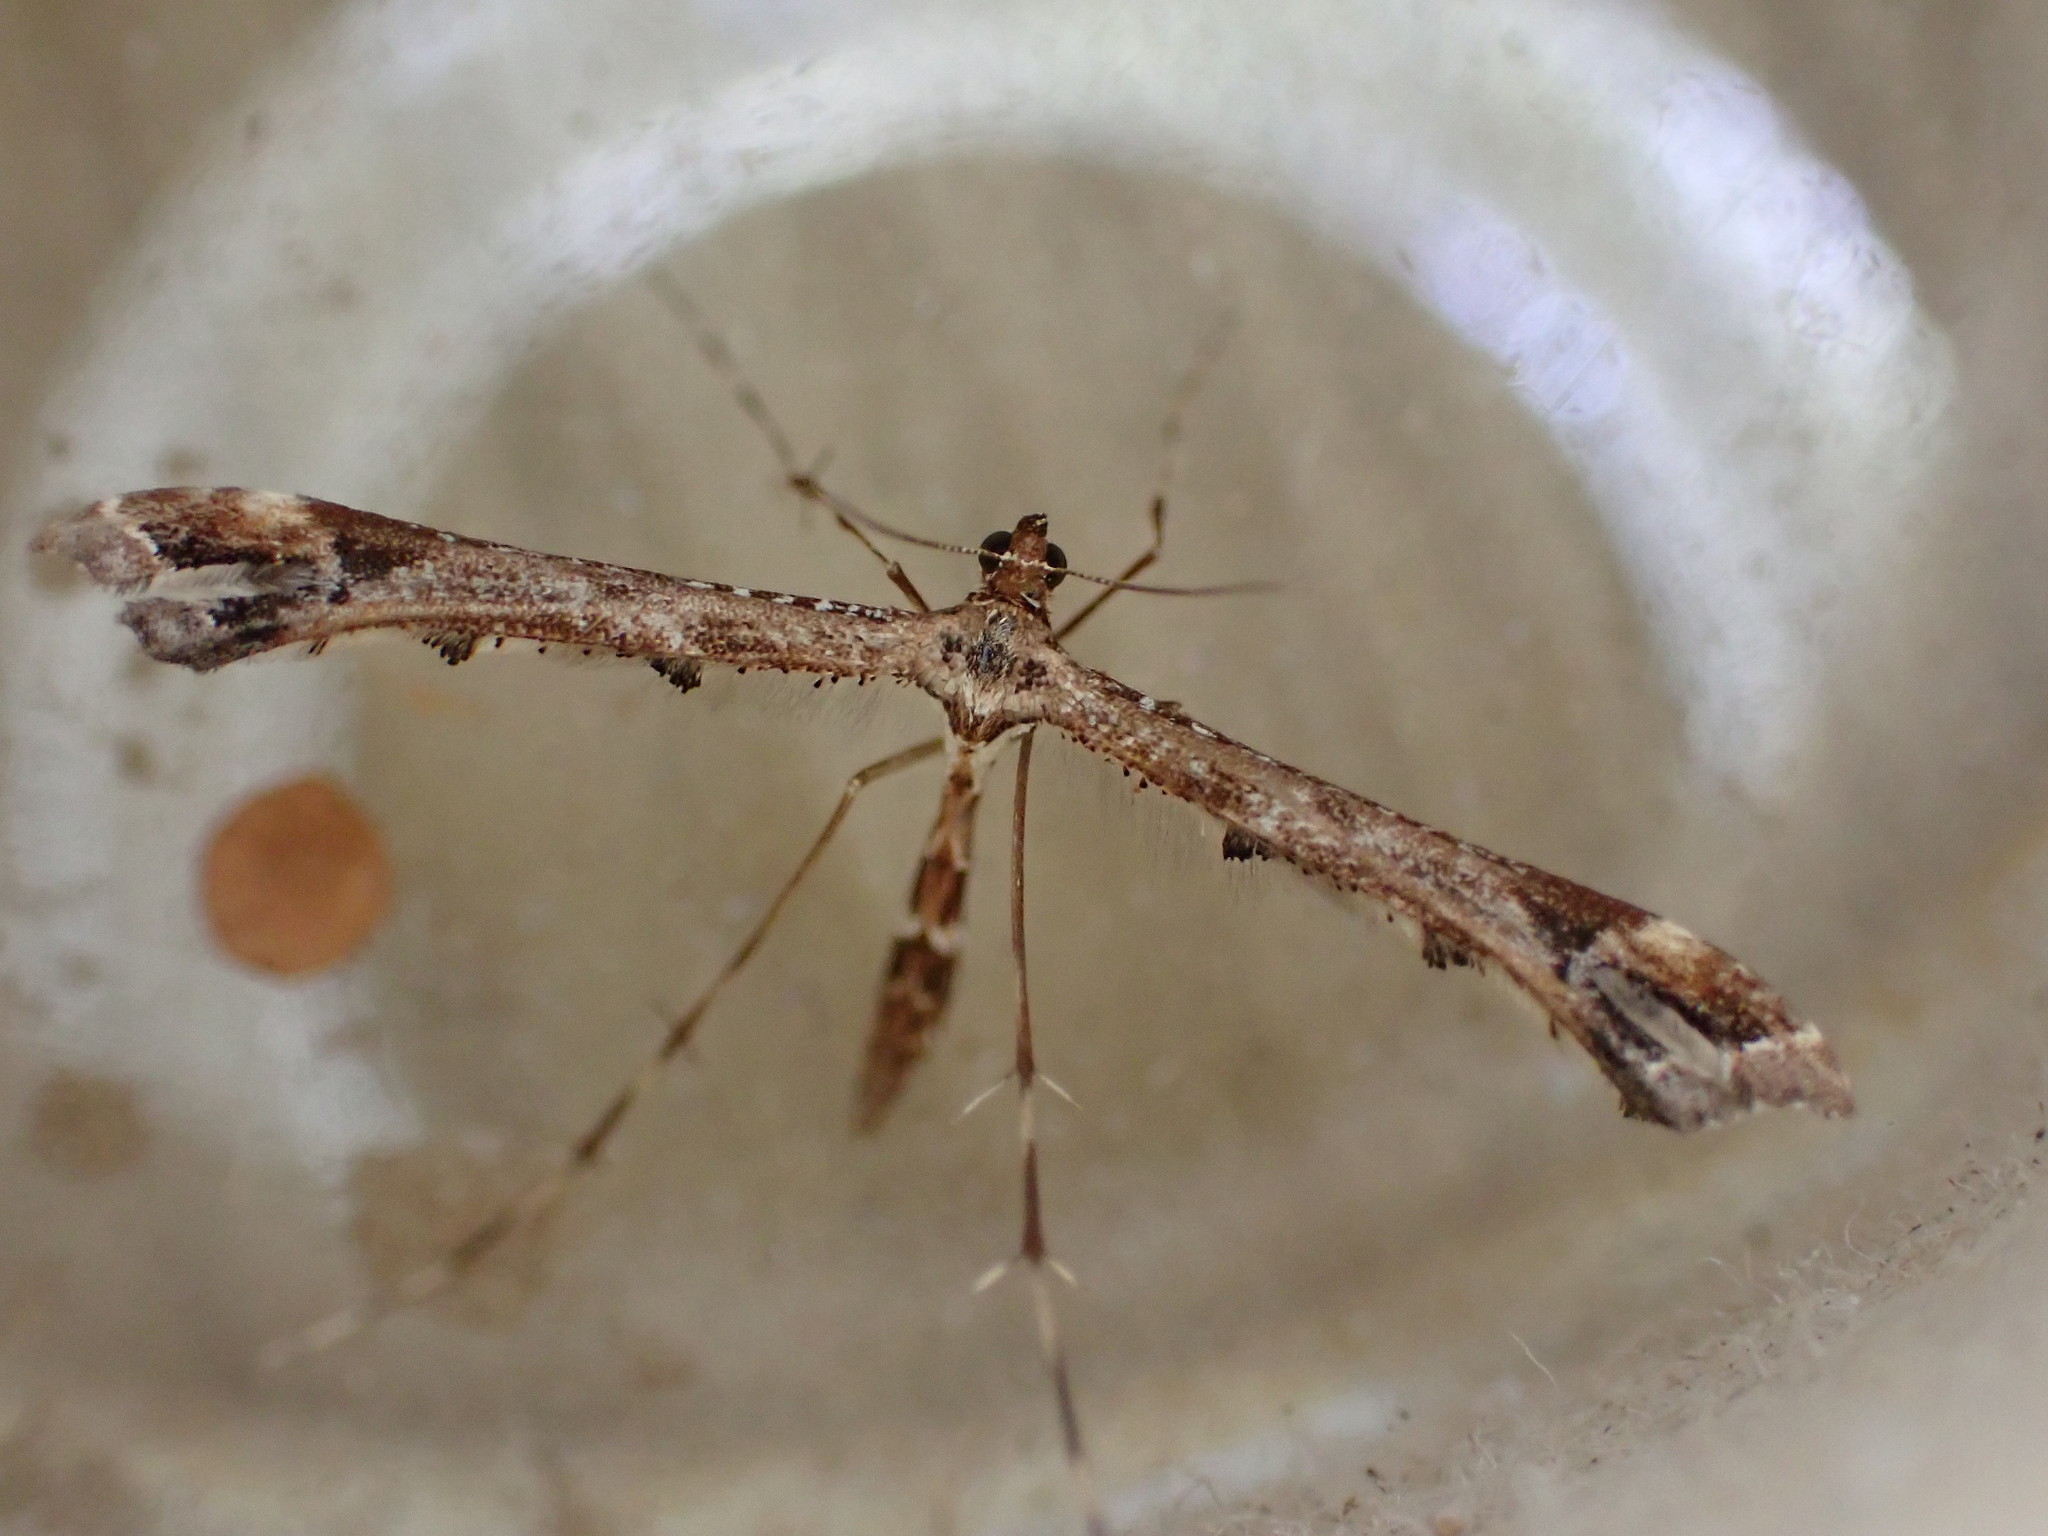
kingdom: Animalia
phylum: Arthropoda
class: Insecta
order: Lepidoptera
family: Pterophoridae
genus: Amblyptilia
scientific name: Amblyptilia acanthadactyla
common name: Beautiful plume
